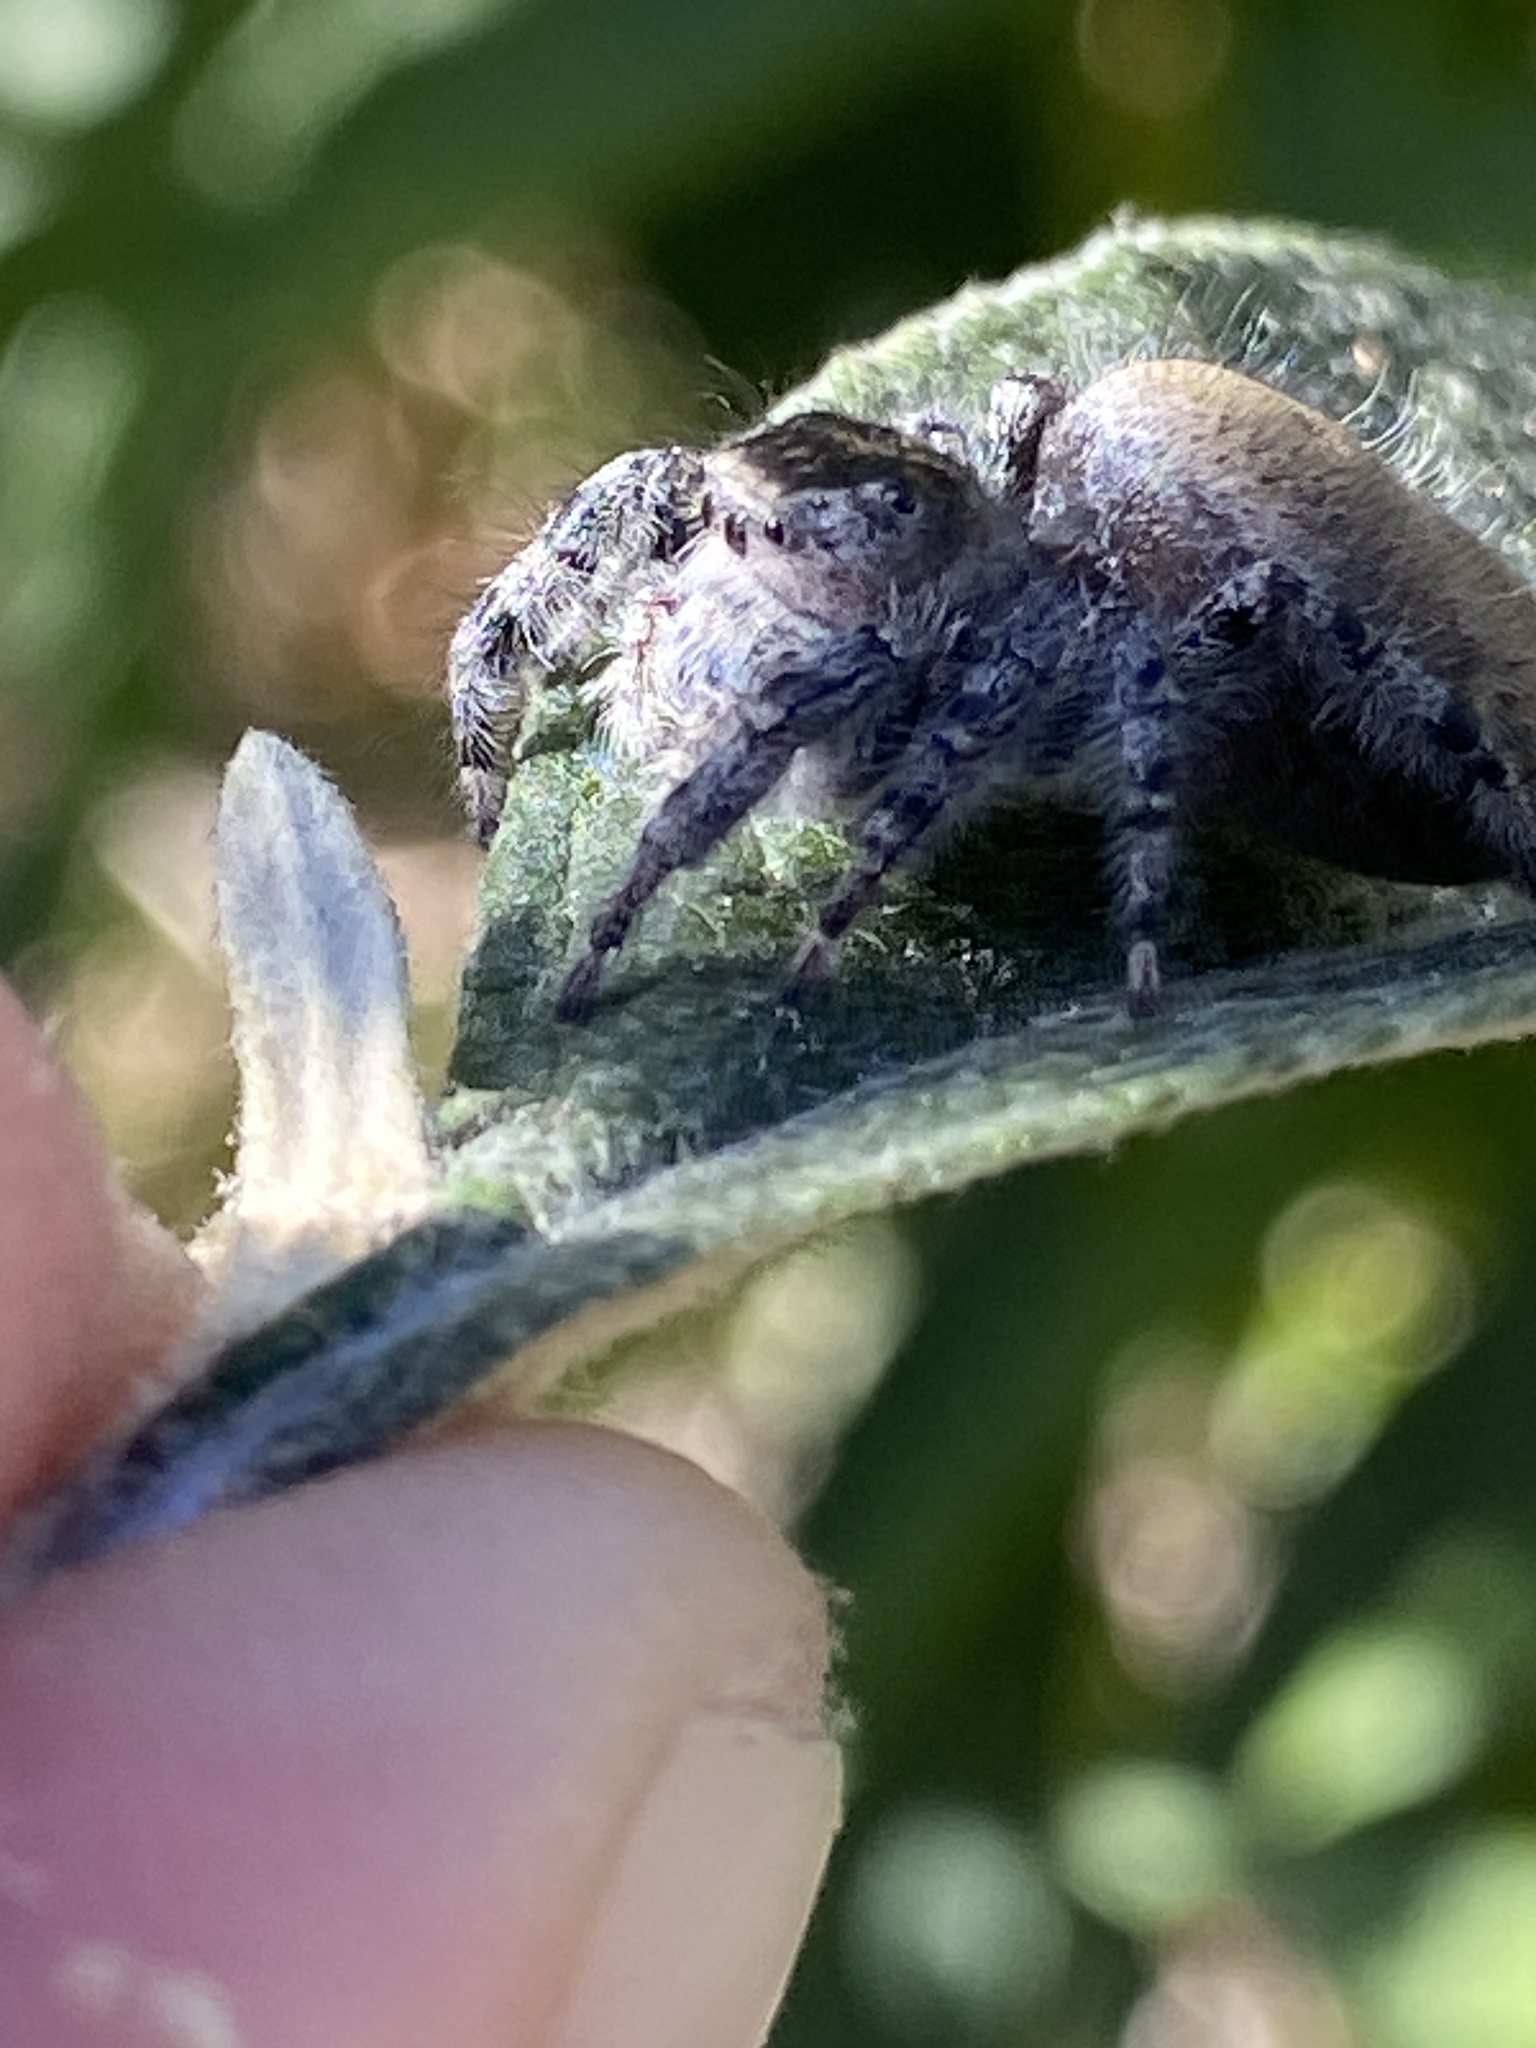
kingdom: Animalia
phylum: Arthropoda
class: Arachnida
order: Araneae
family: Salticidae
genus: Phidippus
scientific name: Phidippus adumbratus
